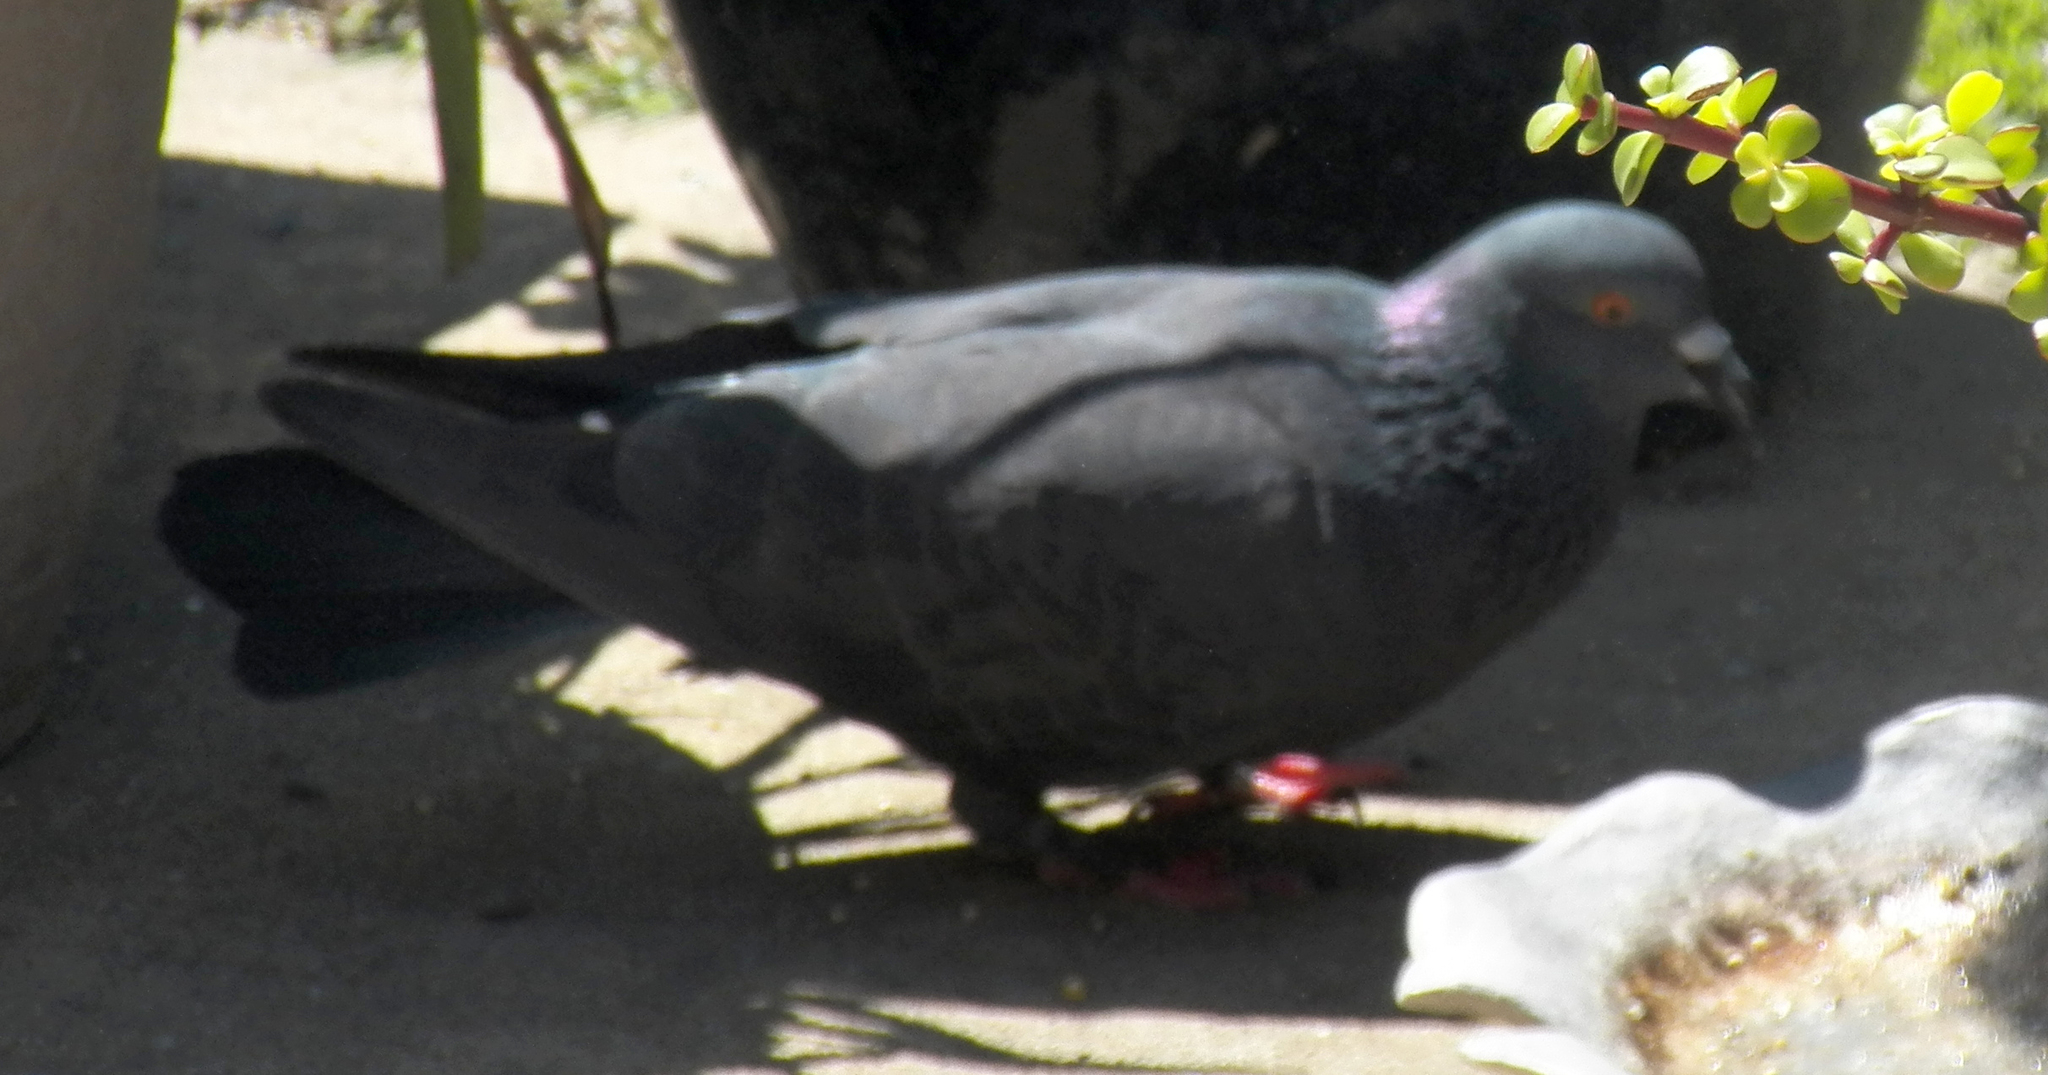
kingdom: Animalia
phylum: Chordata
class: Aves
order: Columbiformes
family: Columbidae
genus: Columba
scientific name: Columba livia
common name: Rock pigeon
